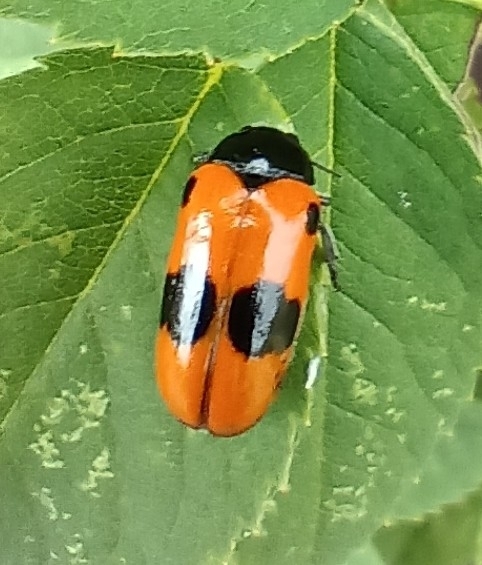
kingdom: Animalia
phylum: Arthropoda
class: Insecta
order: Coleoptera
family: Chrysomelidae
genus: Clytra
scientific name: Clytra laeviuscula
